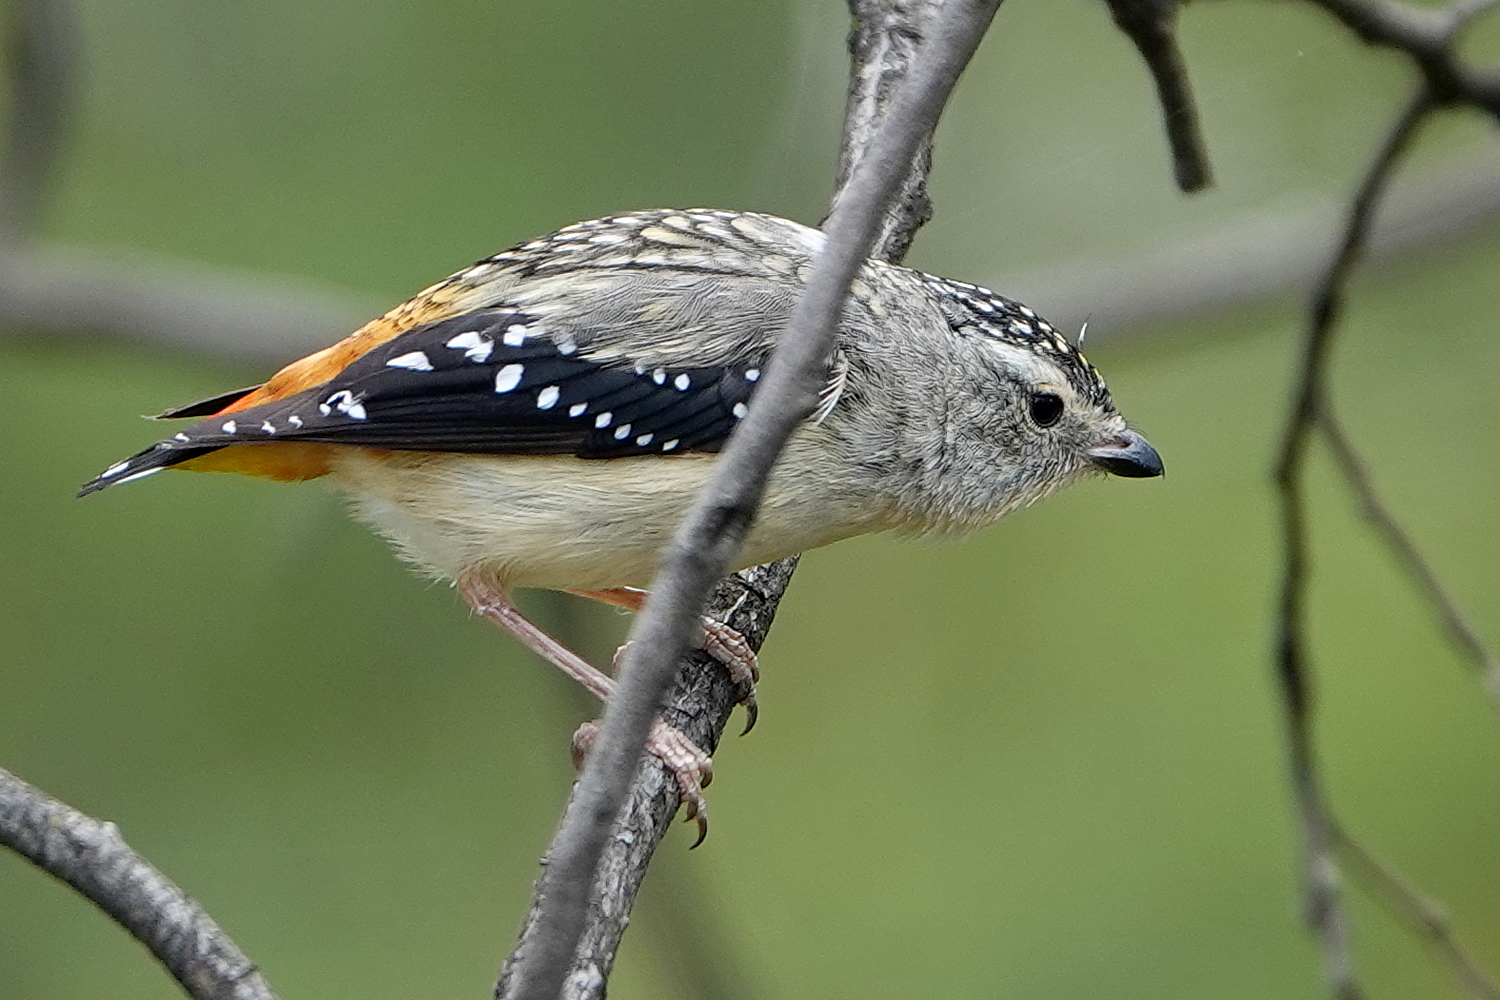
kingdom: Animalia
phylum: Chordata
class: Aves
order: Passeriformes
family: Pardalotidae
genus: Pardalotus
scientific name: Pardalotus punctatus
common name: Spotted pardalote
